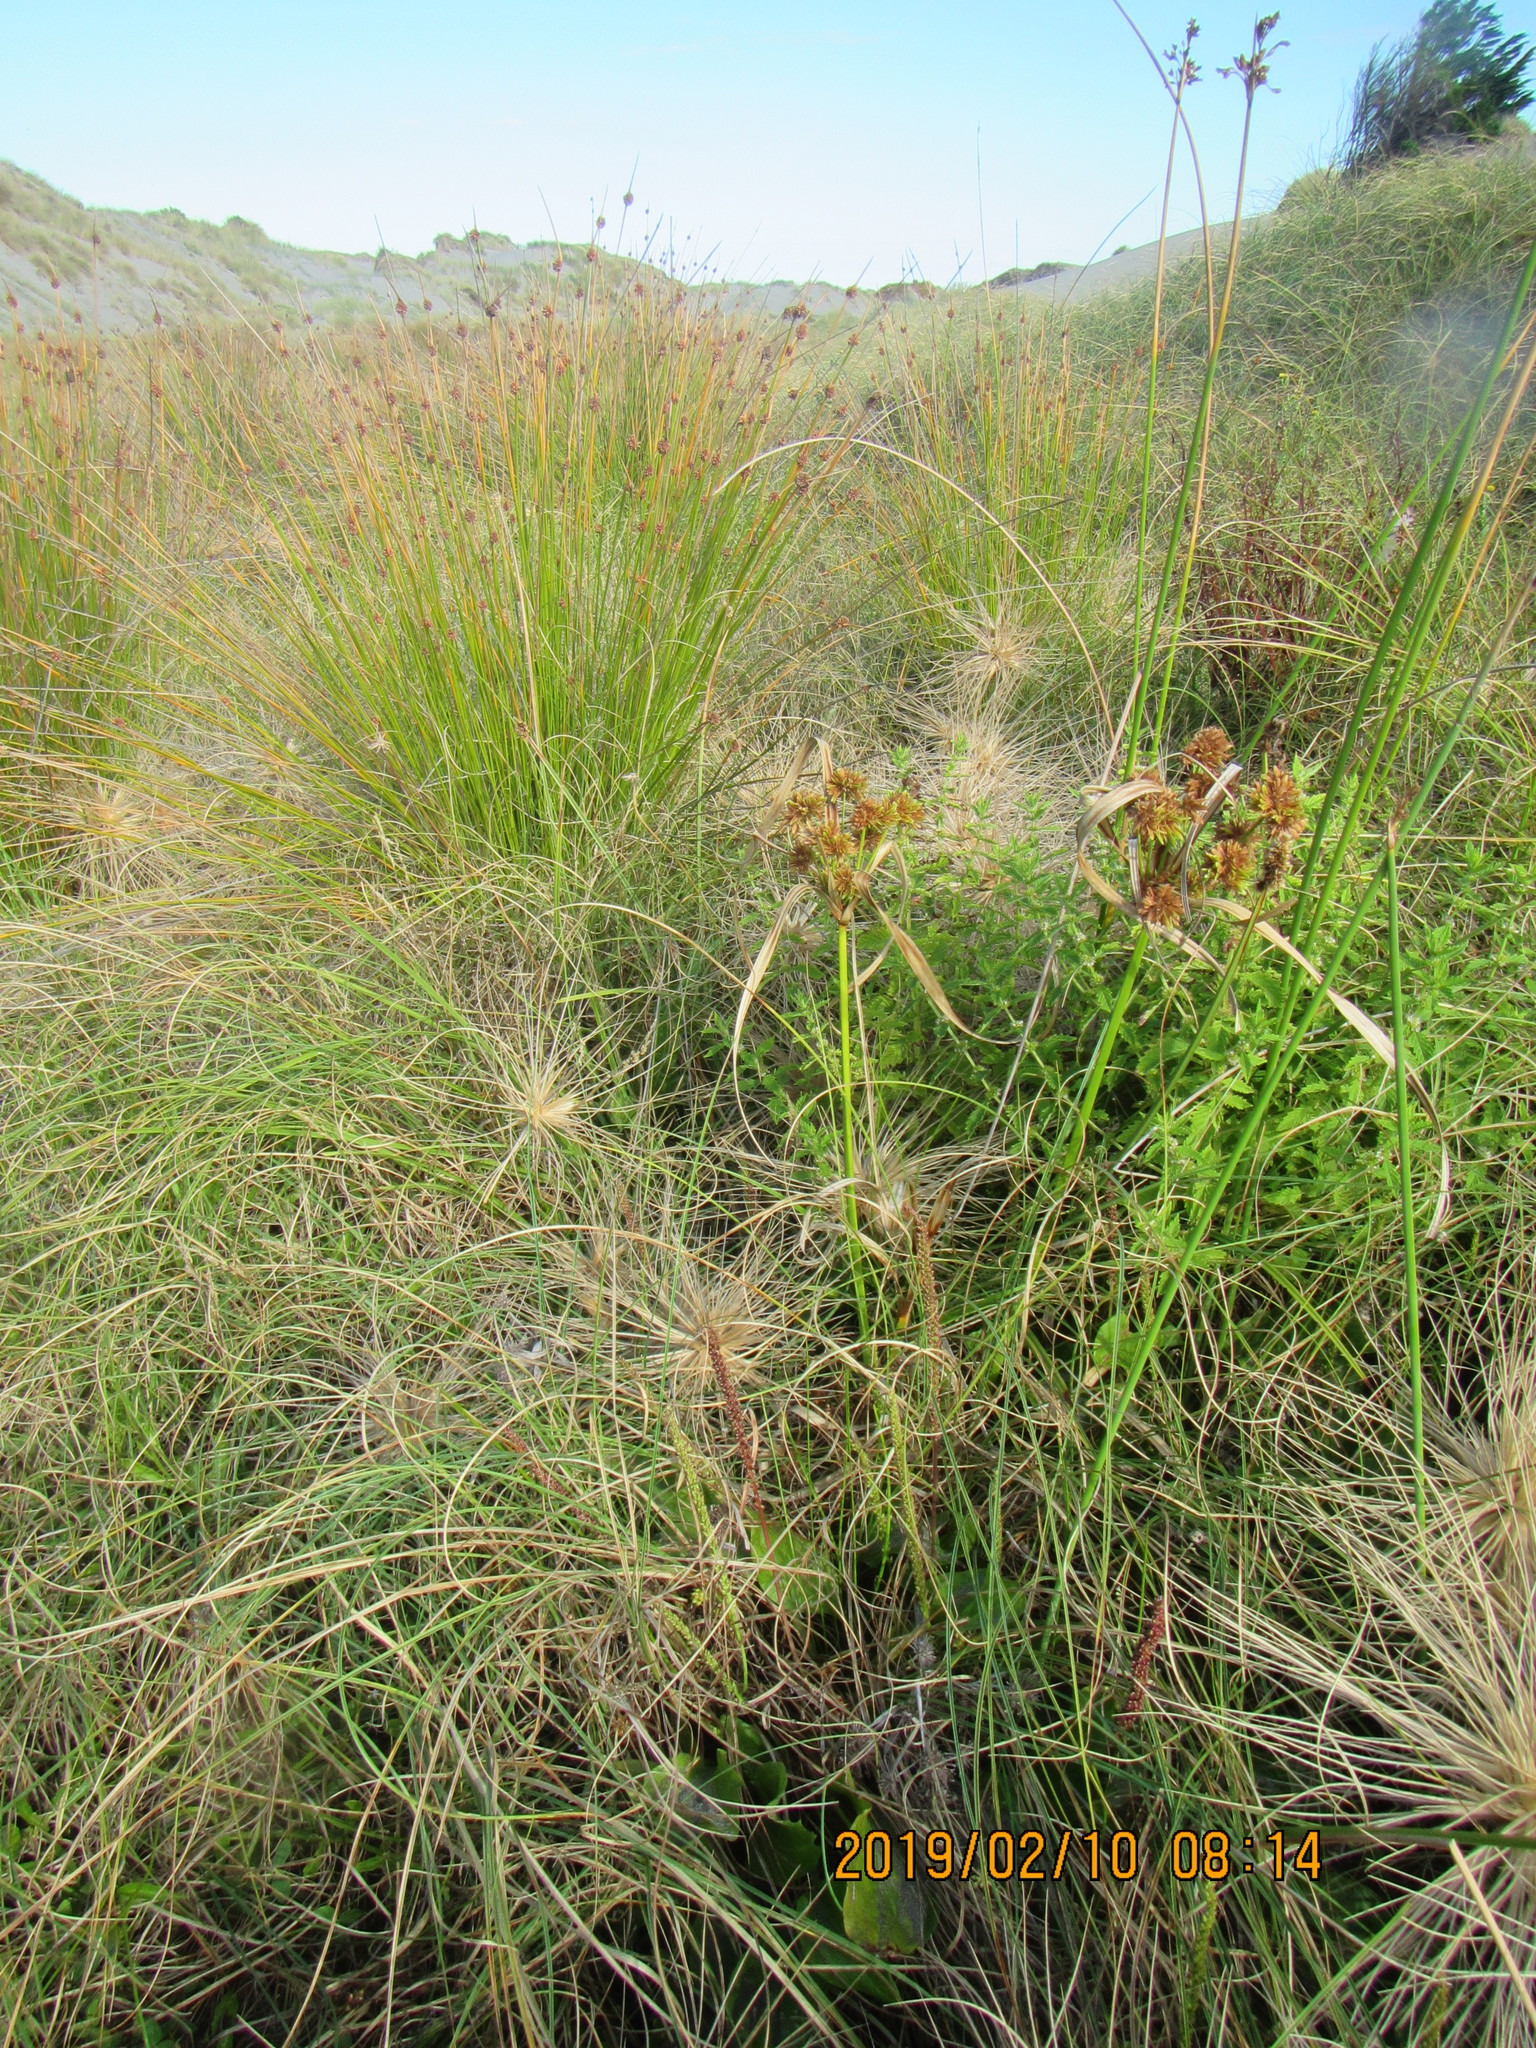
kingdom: Plantae
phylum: Tracheophyta
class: Liliopsida
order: Poales
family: Cyperaceae
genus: Cyperus
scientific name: Cyperus eragrostis
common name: Tall flatsedge
